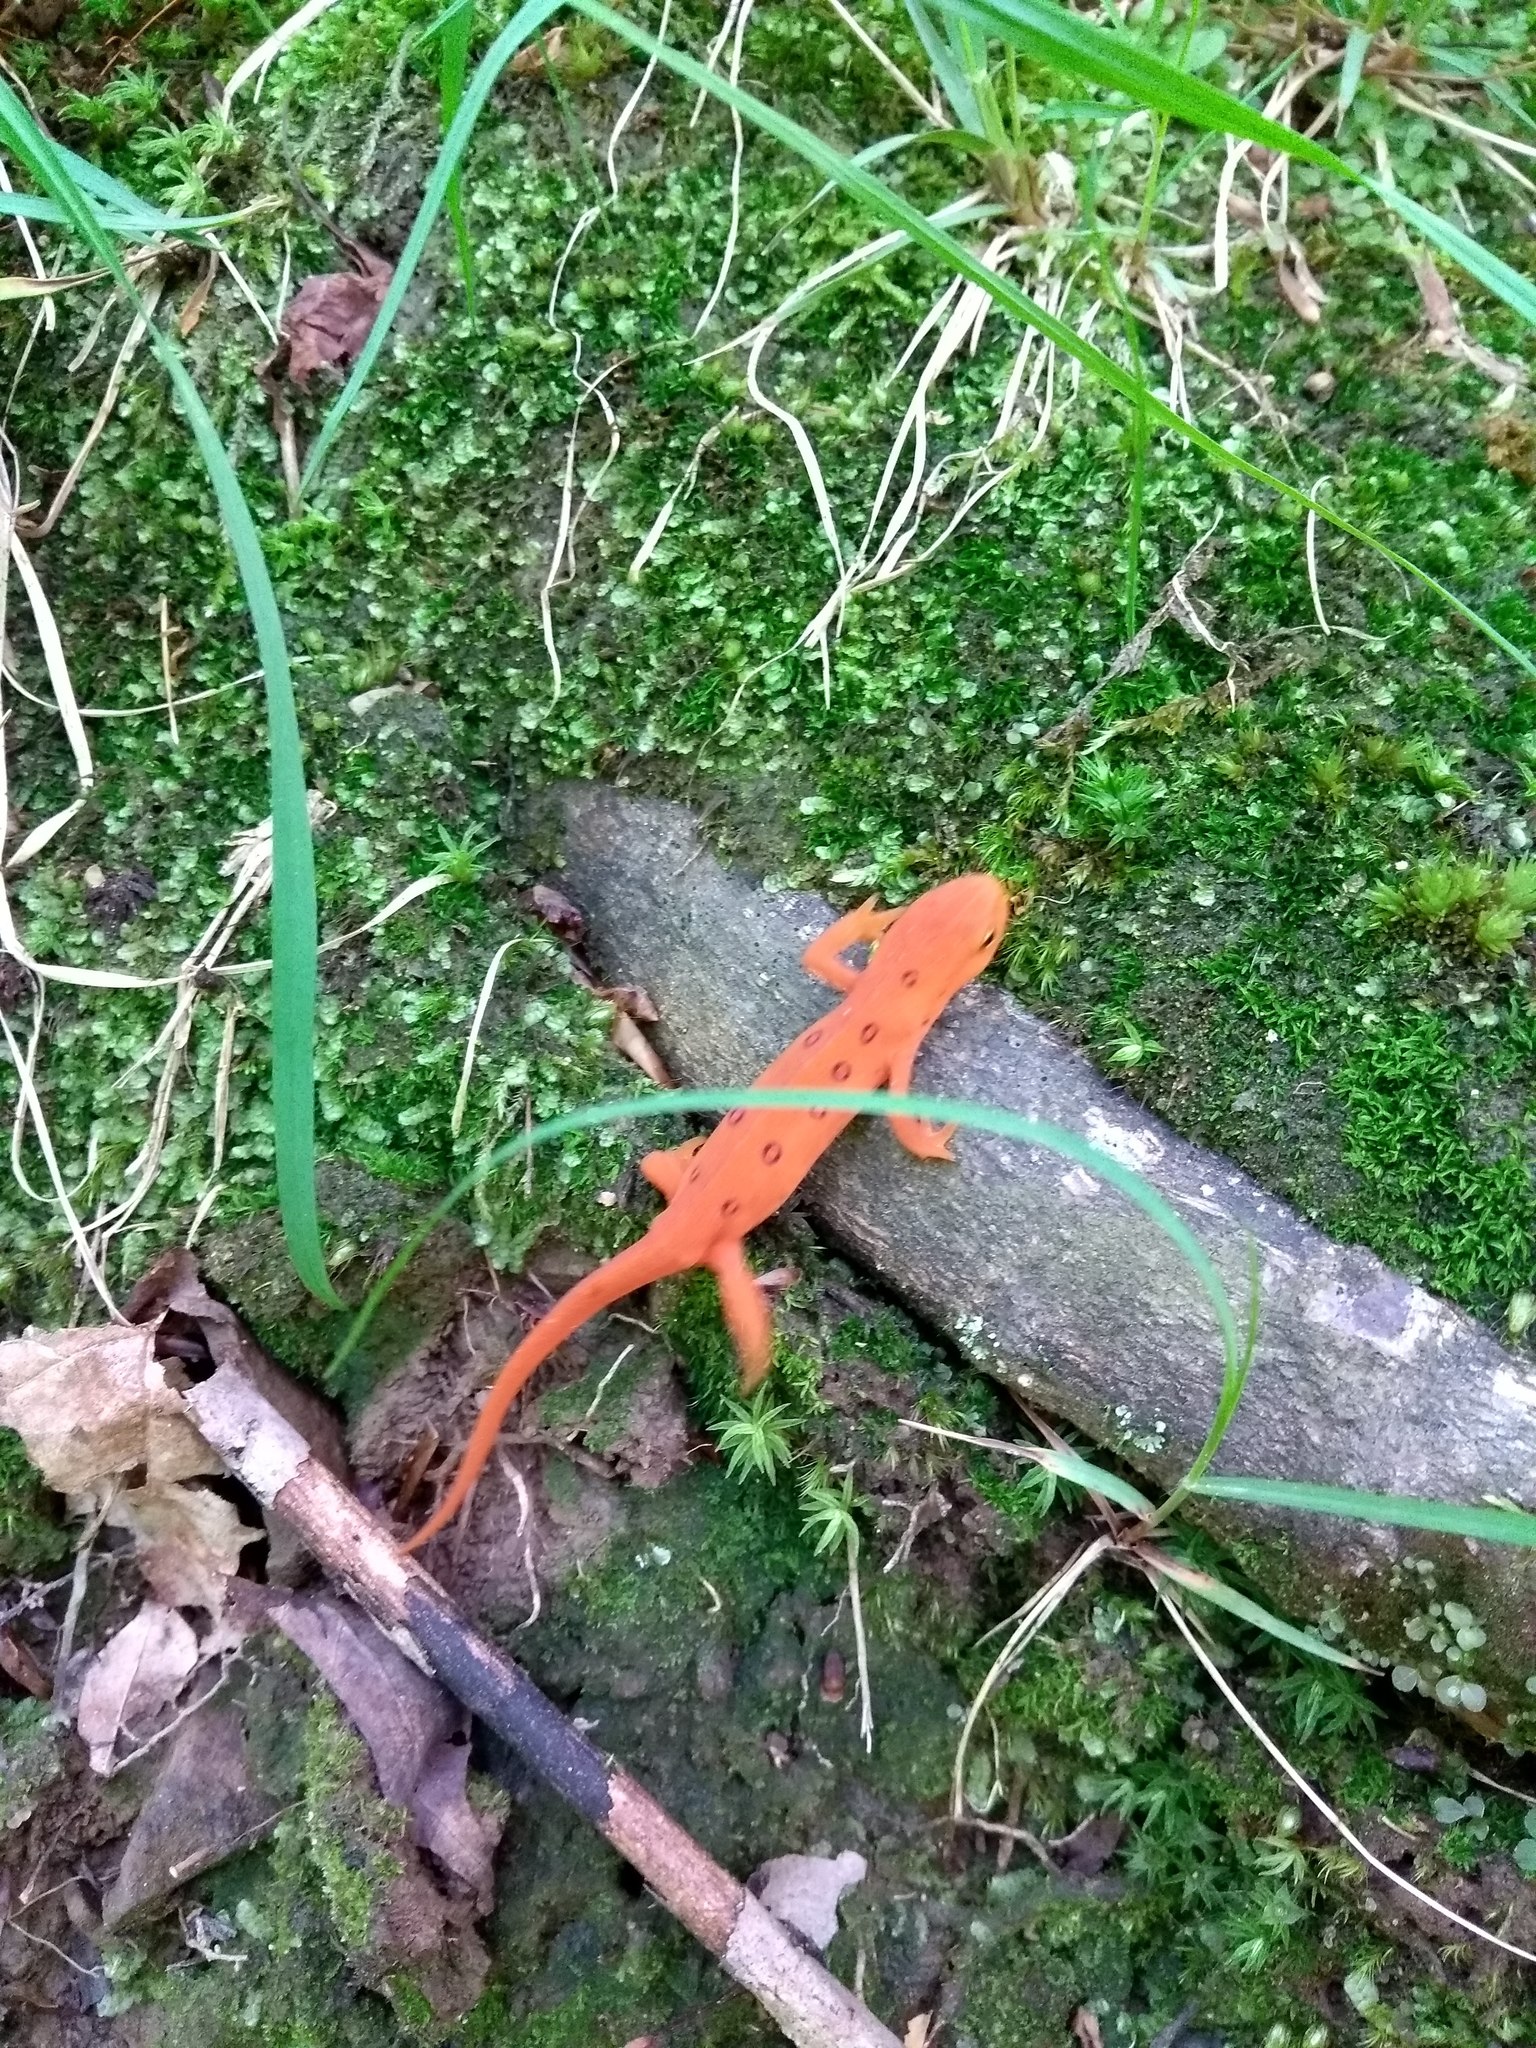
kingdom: Animalia
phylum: Chordata
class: Amphibia
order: Caudata
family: Salamandridae
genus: Notophthalmus
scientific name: Notophthalmus viridescens
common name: Eastern newt
